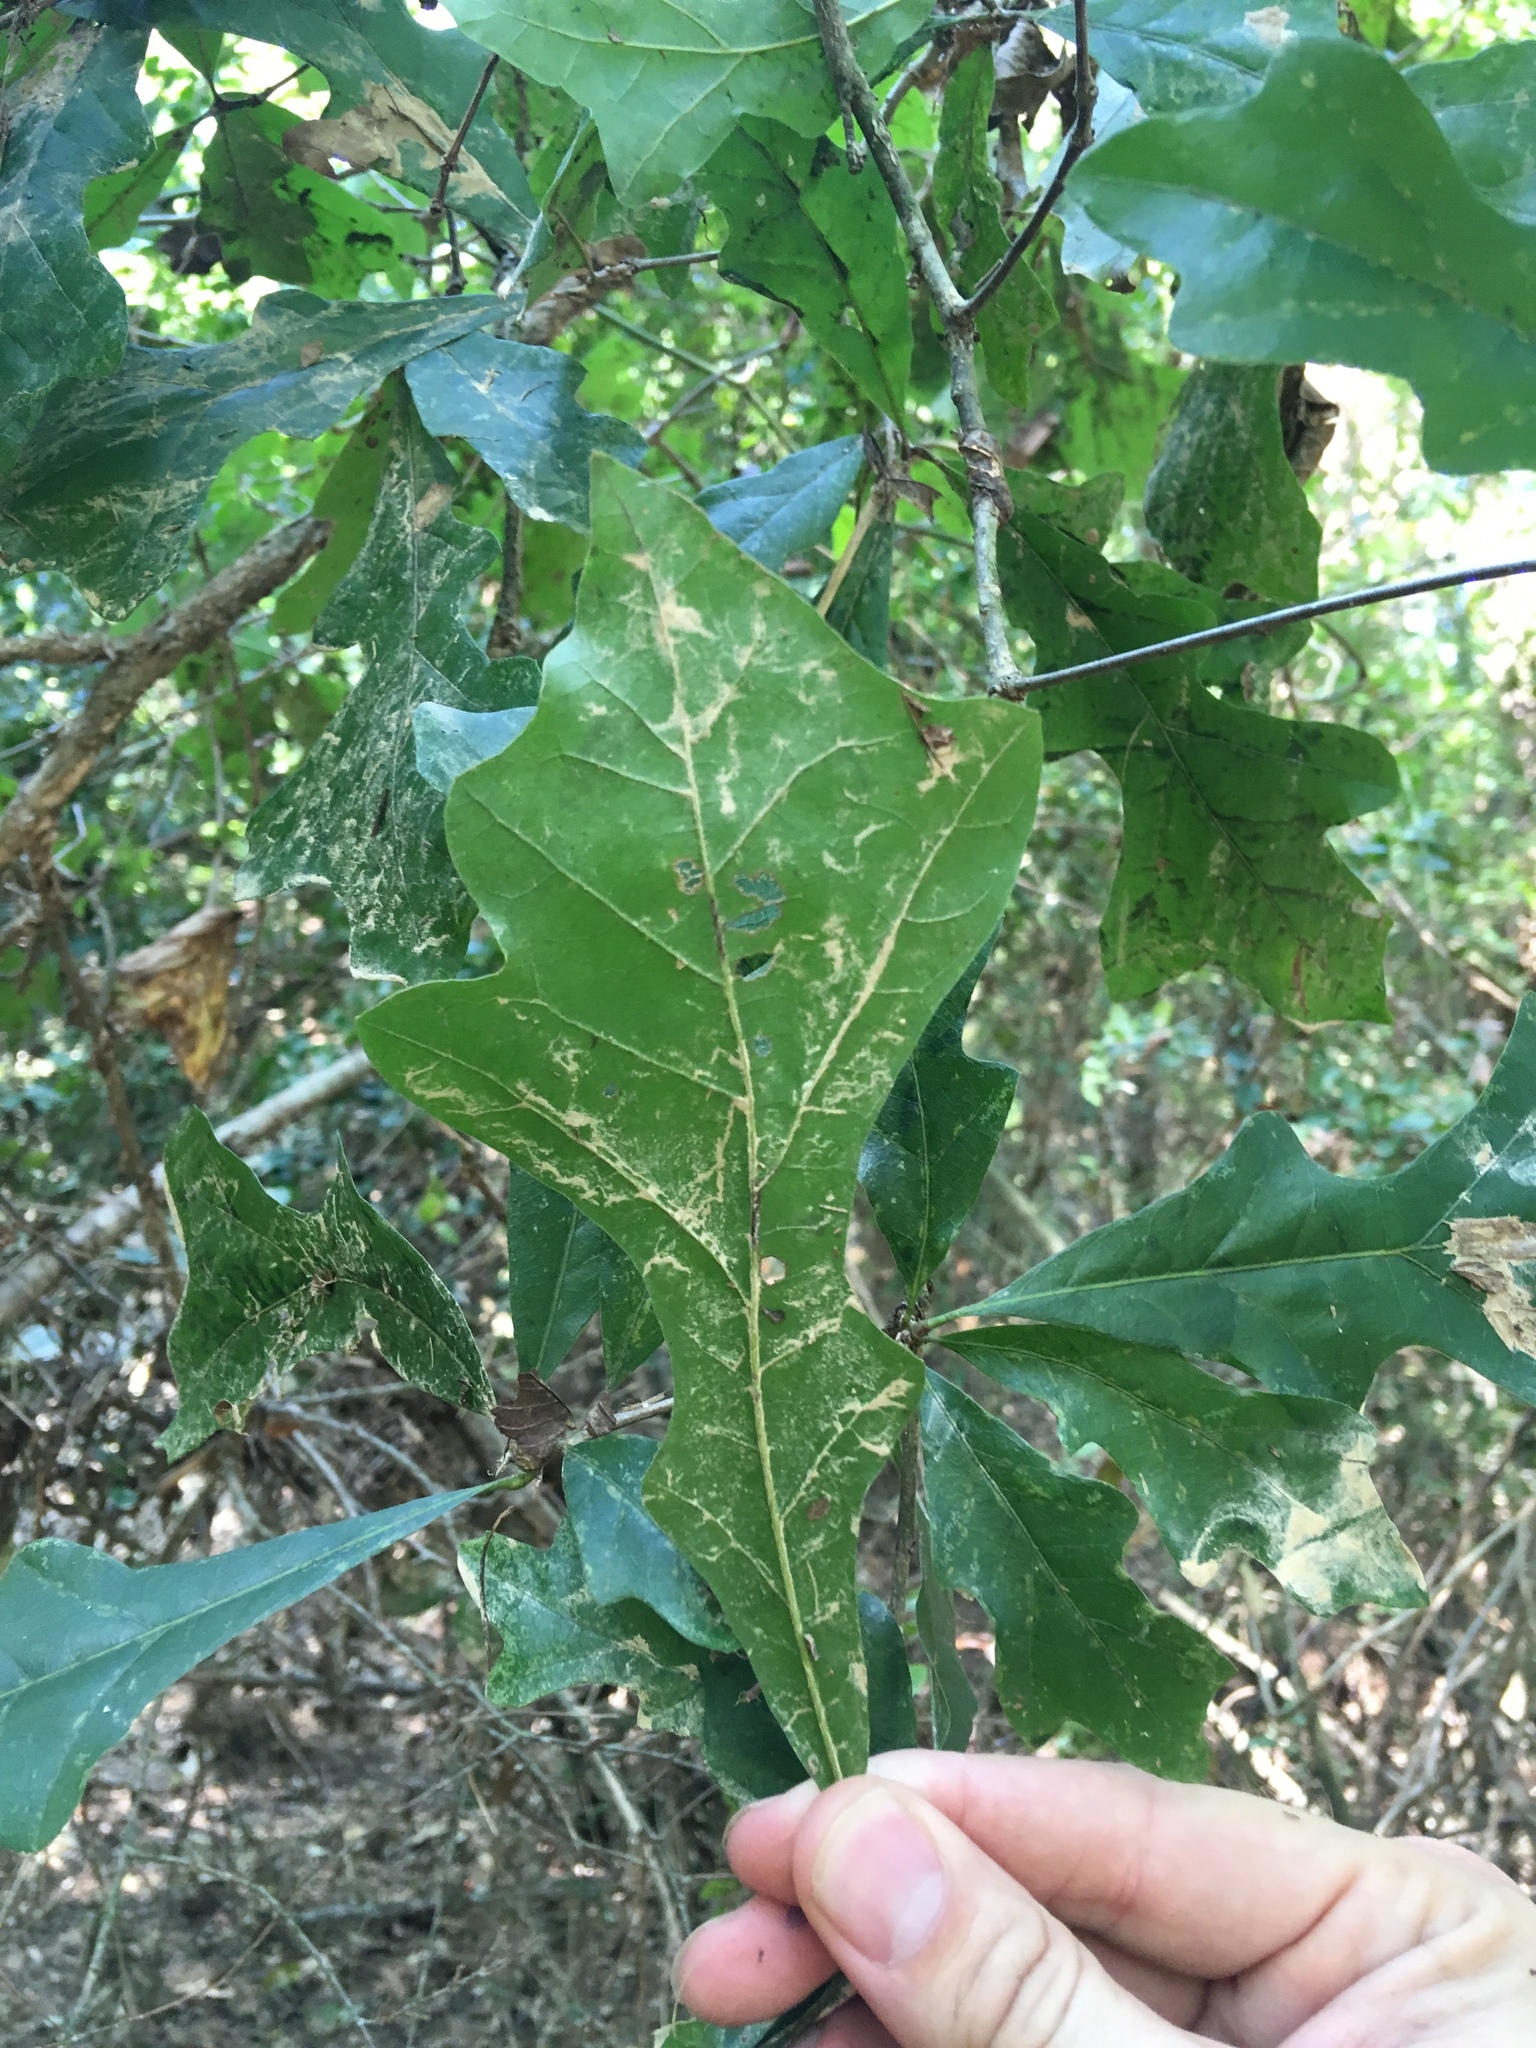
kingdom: Plantae
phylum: Tracheophyta
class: Magnoliopsida
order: Fagales
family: Fagaceae
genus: Quercus
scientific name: Quercus lyrata
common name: Overcup oak
